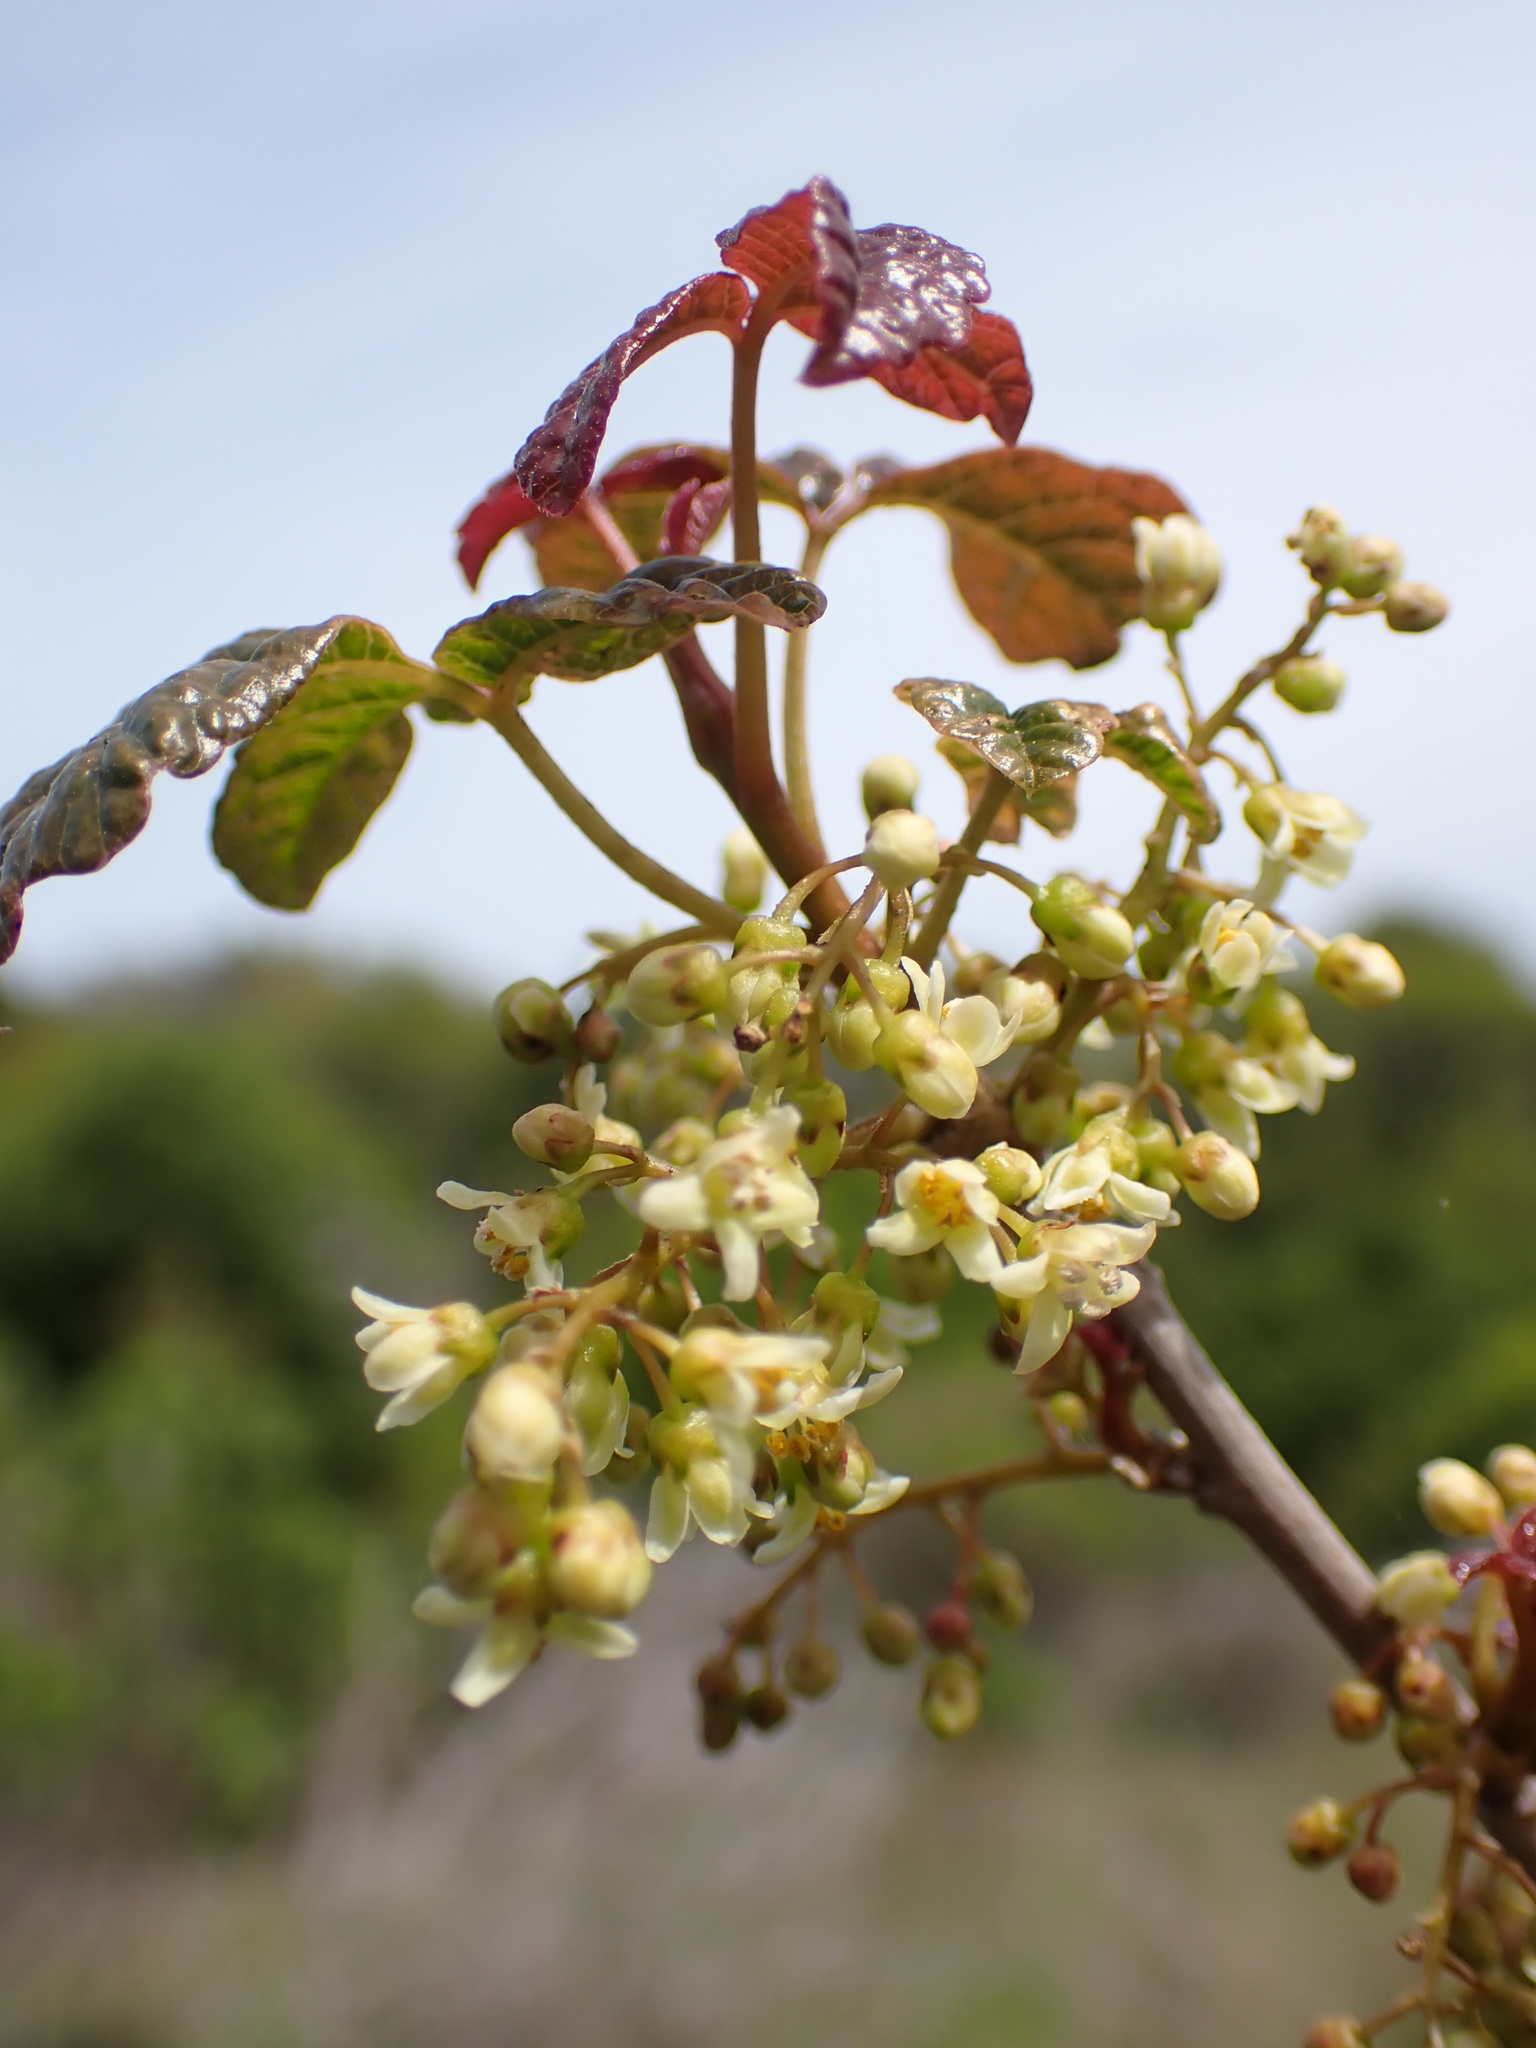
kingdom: Plantae
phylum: Tracheophyta
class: Magnoliopsida
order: Sapindales
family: Anacardiaceae
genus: Toxicodendron
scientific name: Toxicodendron diversilobum
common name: Pacific poison-oak
